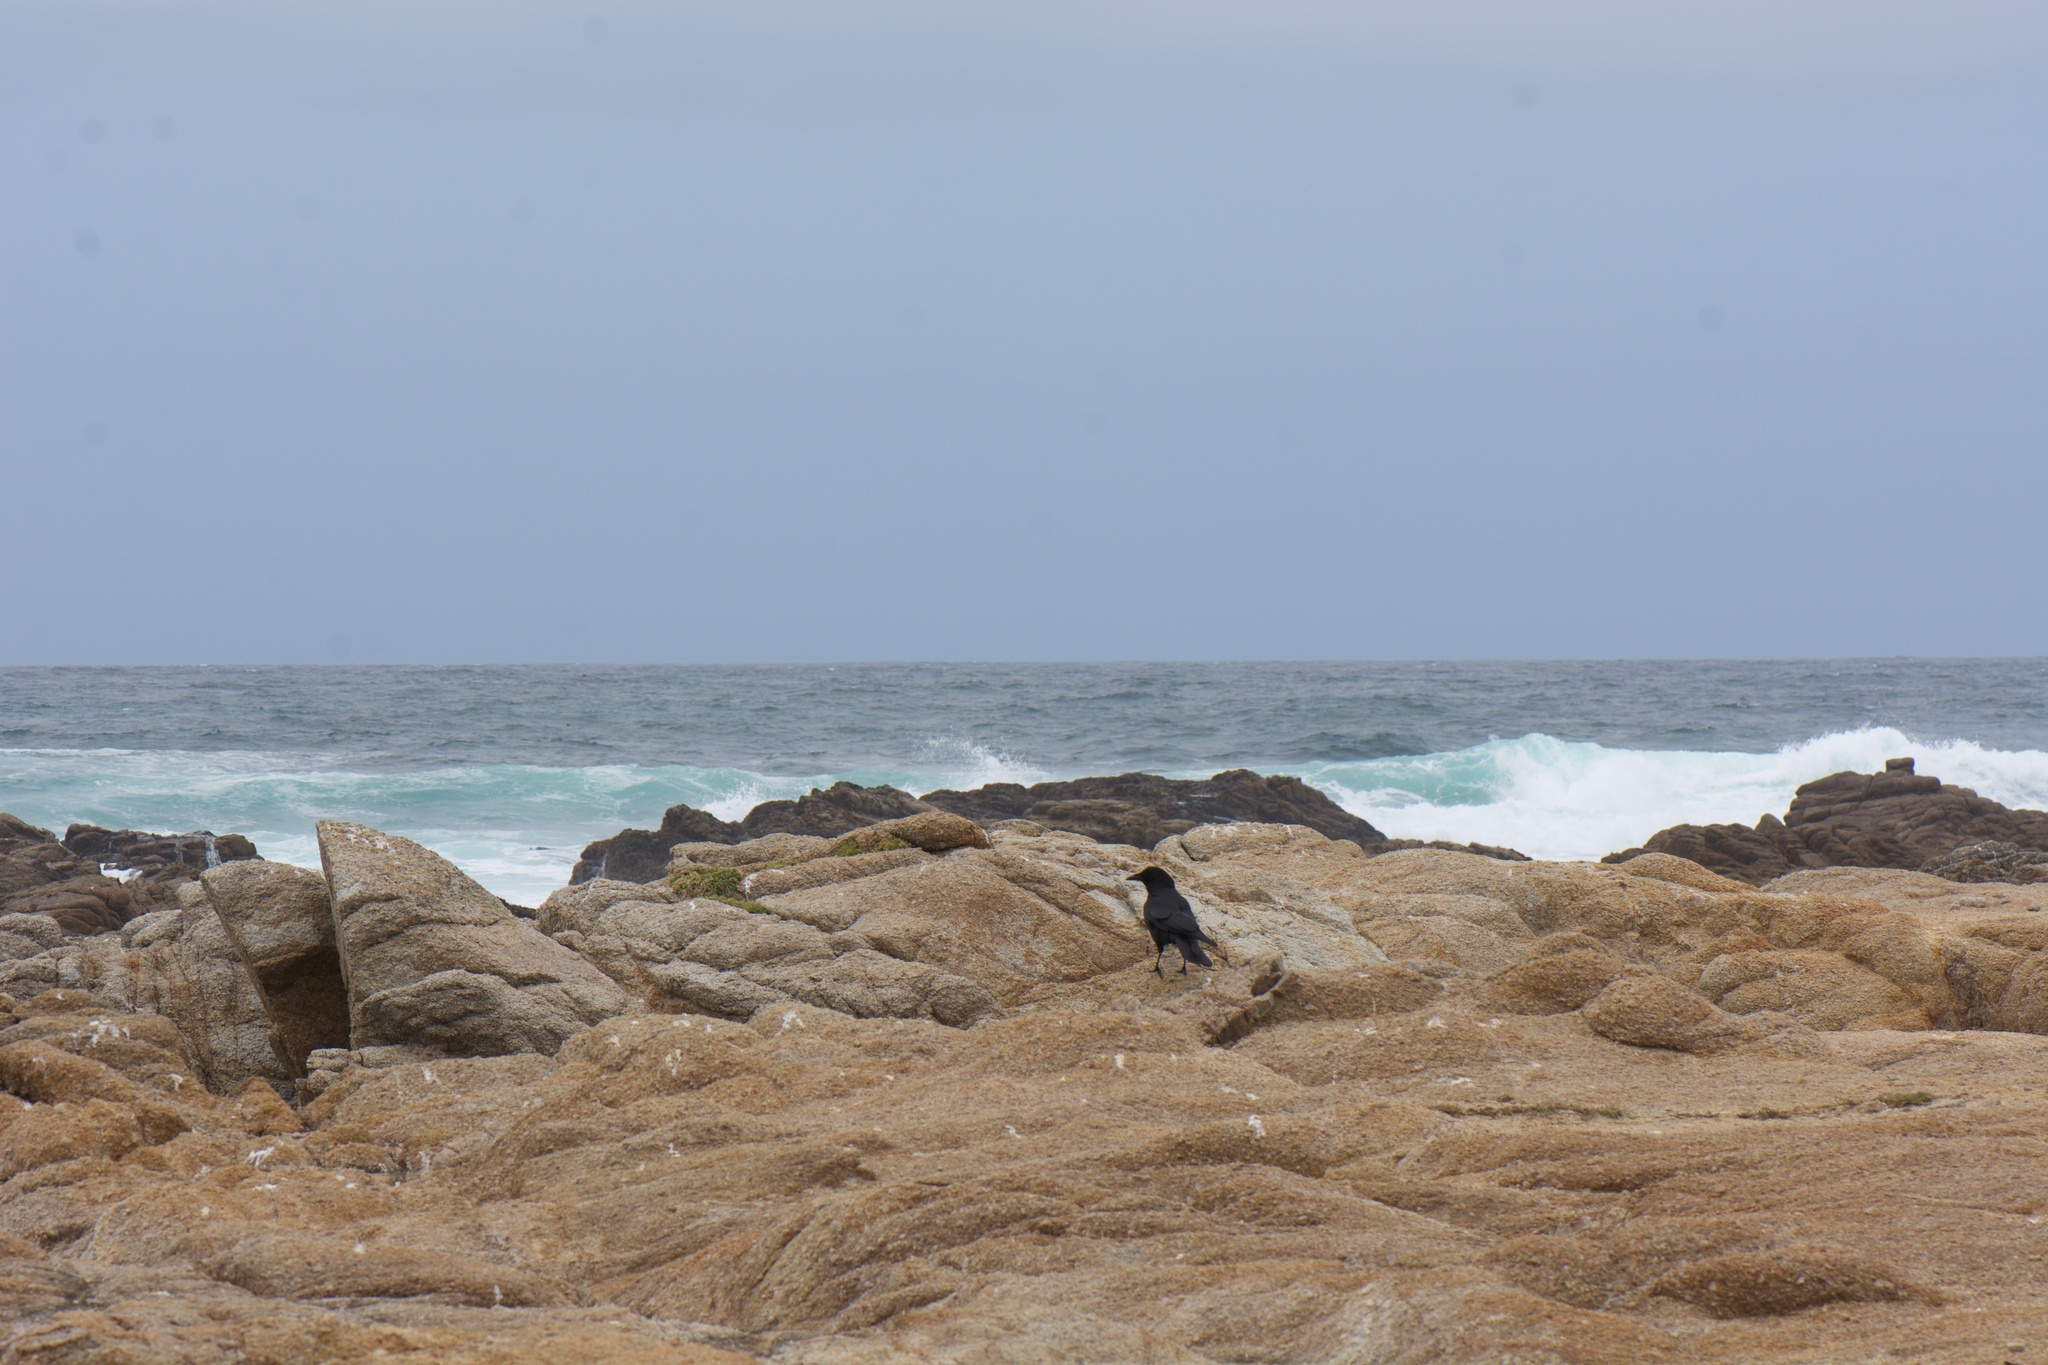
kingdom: Animalia
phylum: Chordata
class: Aves
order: Passeriformes
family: Corvidae
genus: Corvus
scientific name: Corvus brachyrhynchos
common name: American crow
